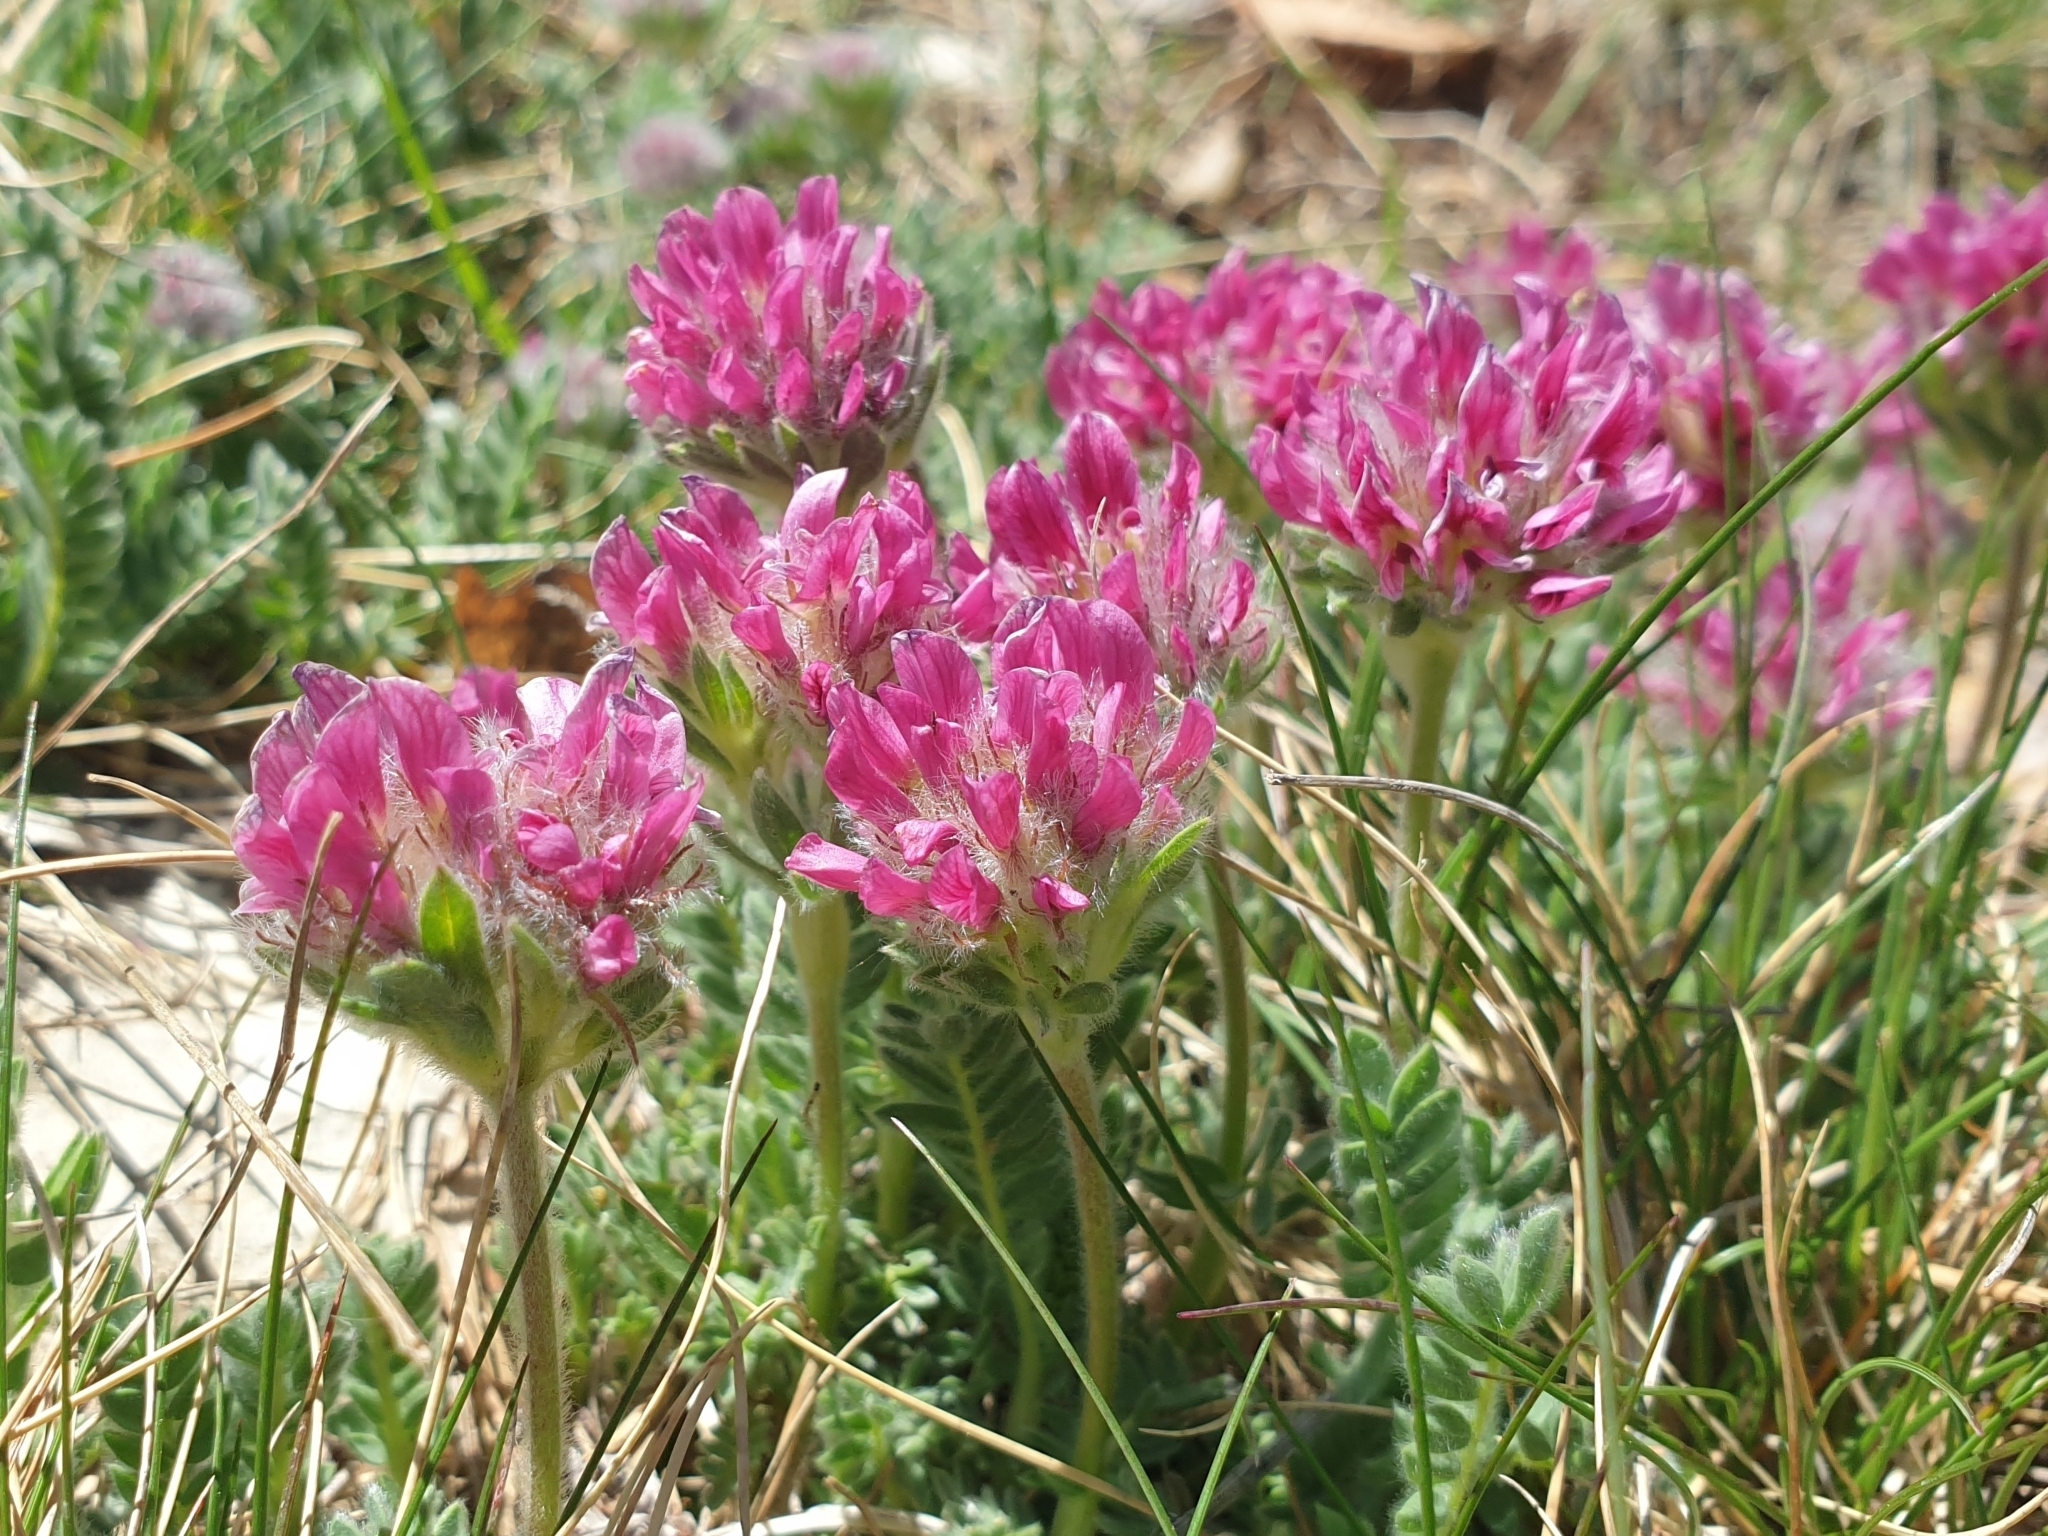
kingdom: Plantae
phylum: Tracheophyta
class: Magnoliopsida
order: Fabales
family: Fabaceae
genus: Anthyllis
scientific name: Anthyllis montana
